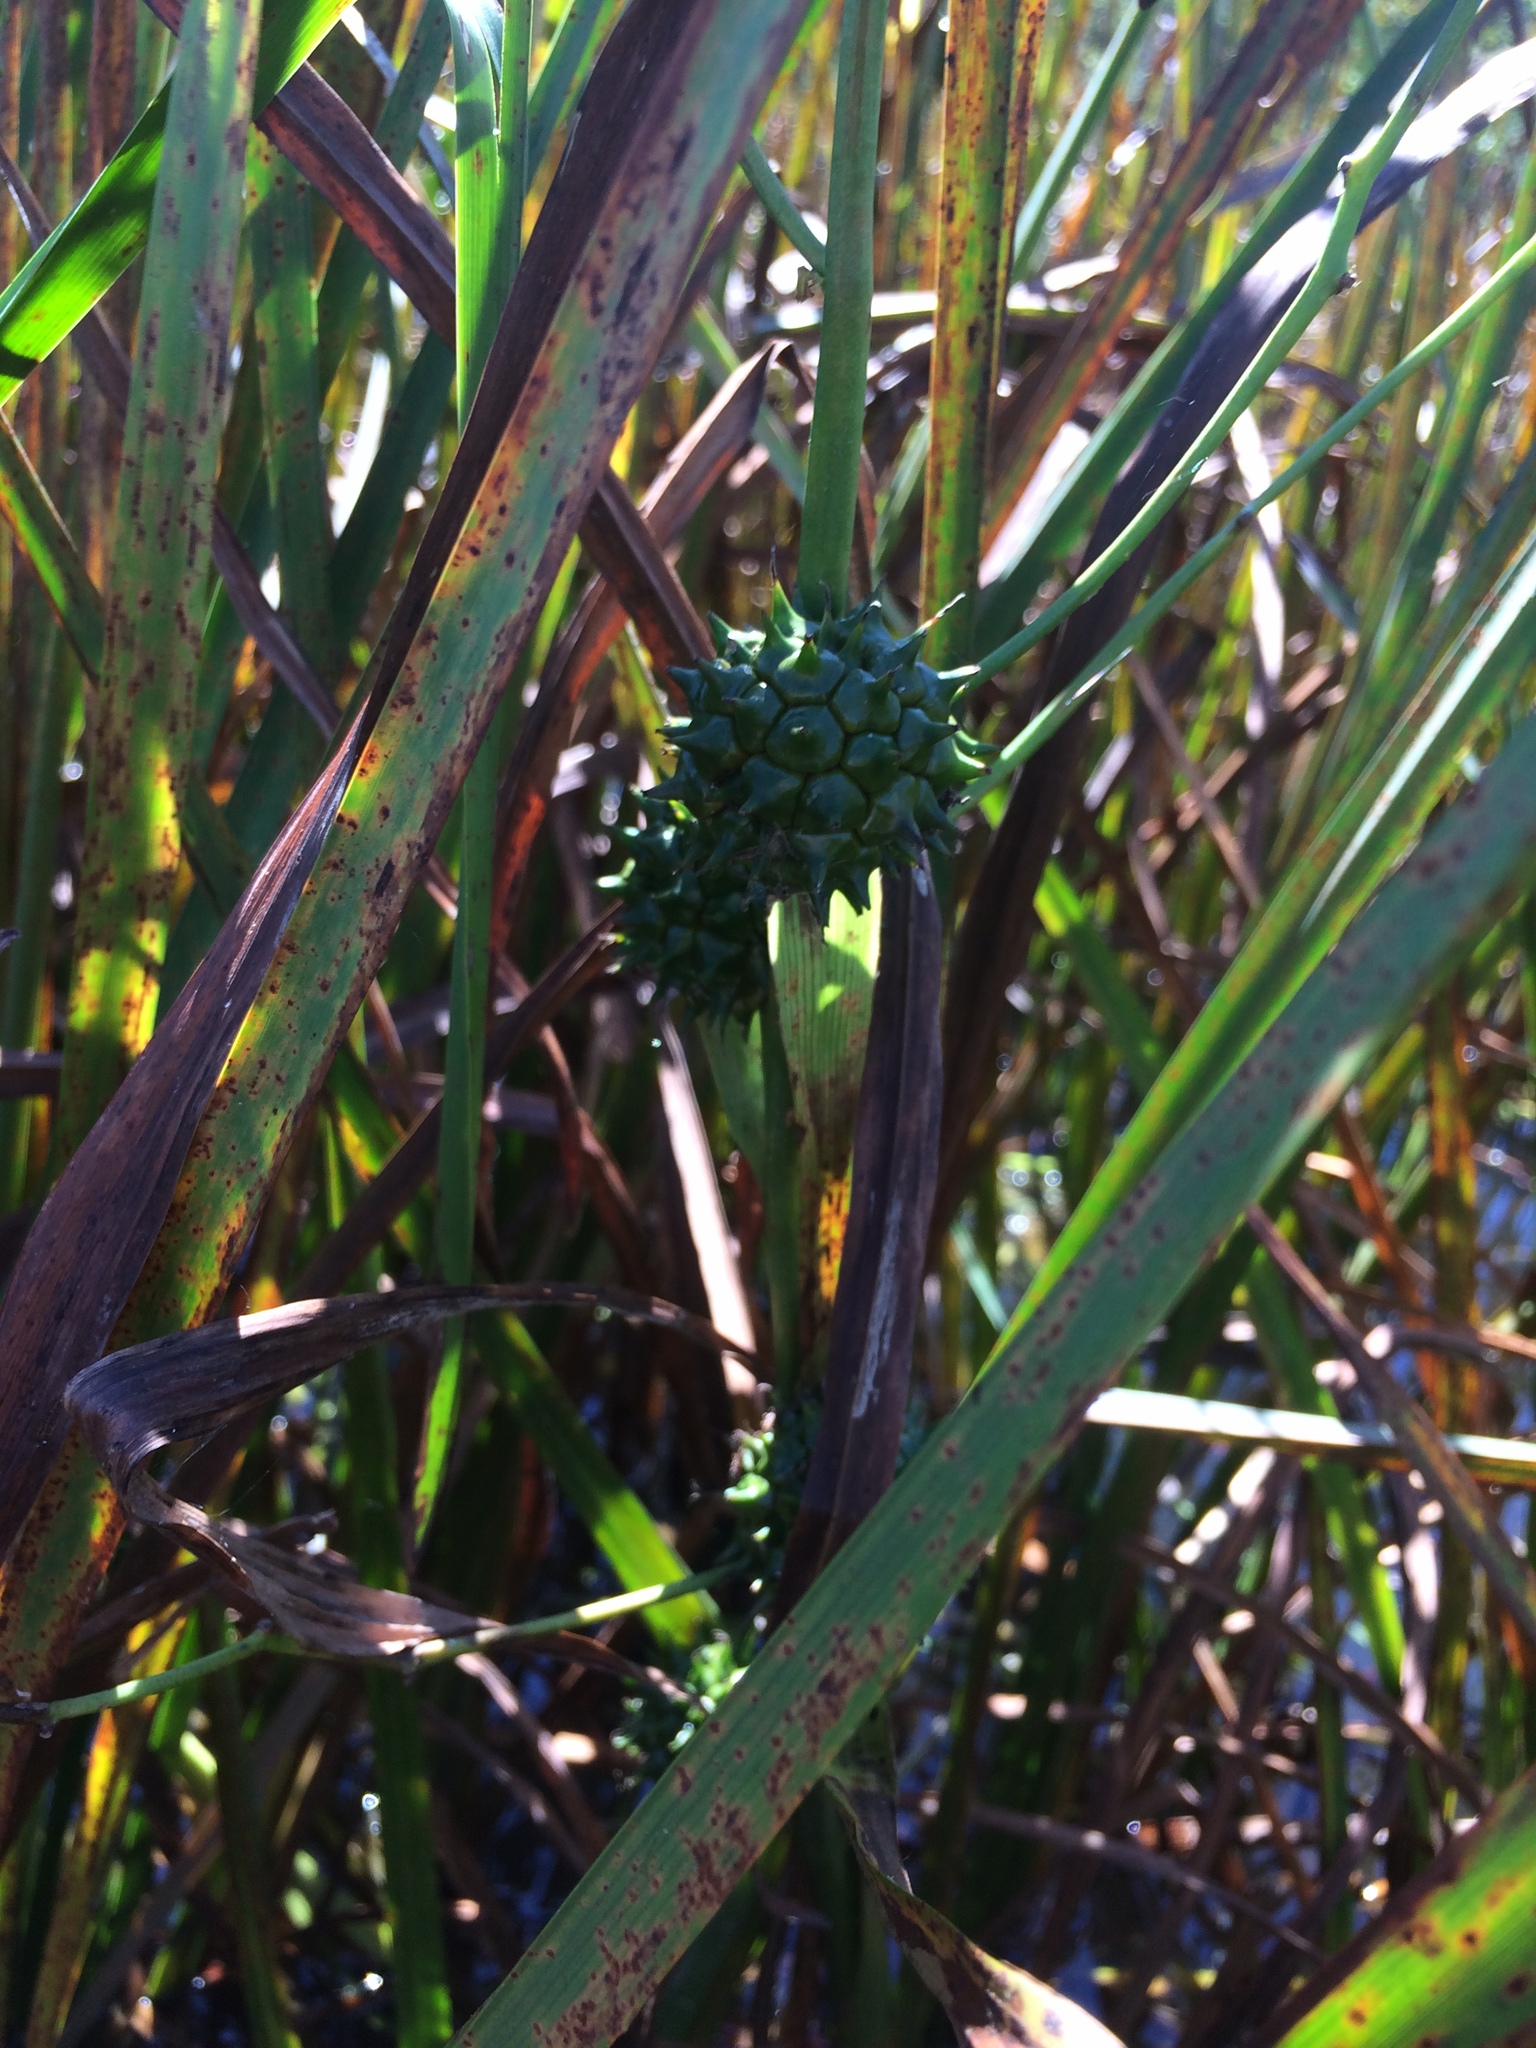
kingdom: Plantae
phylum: Tracheophyta
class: Liliopsida
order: Poales
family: Typhaceae
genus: Sparganium
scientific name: Sparganium eurycarpum
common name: Broad-fruited burreed
